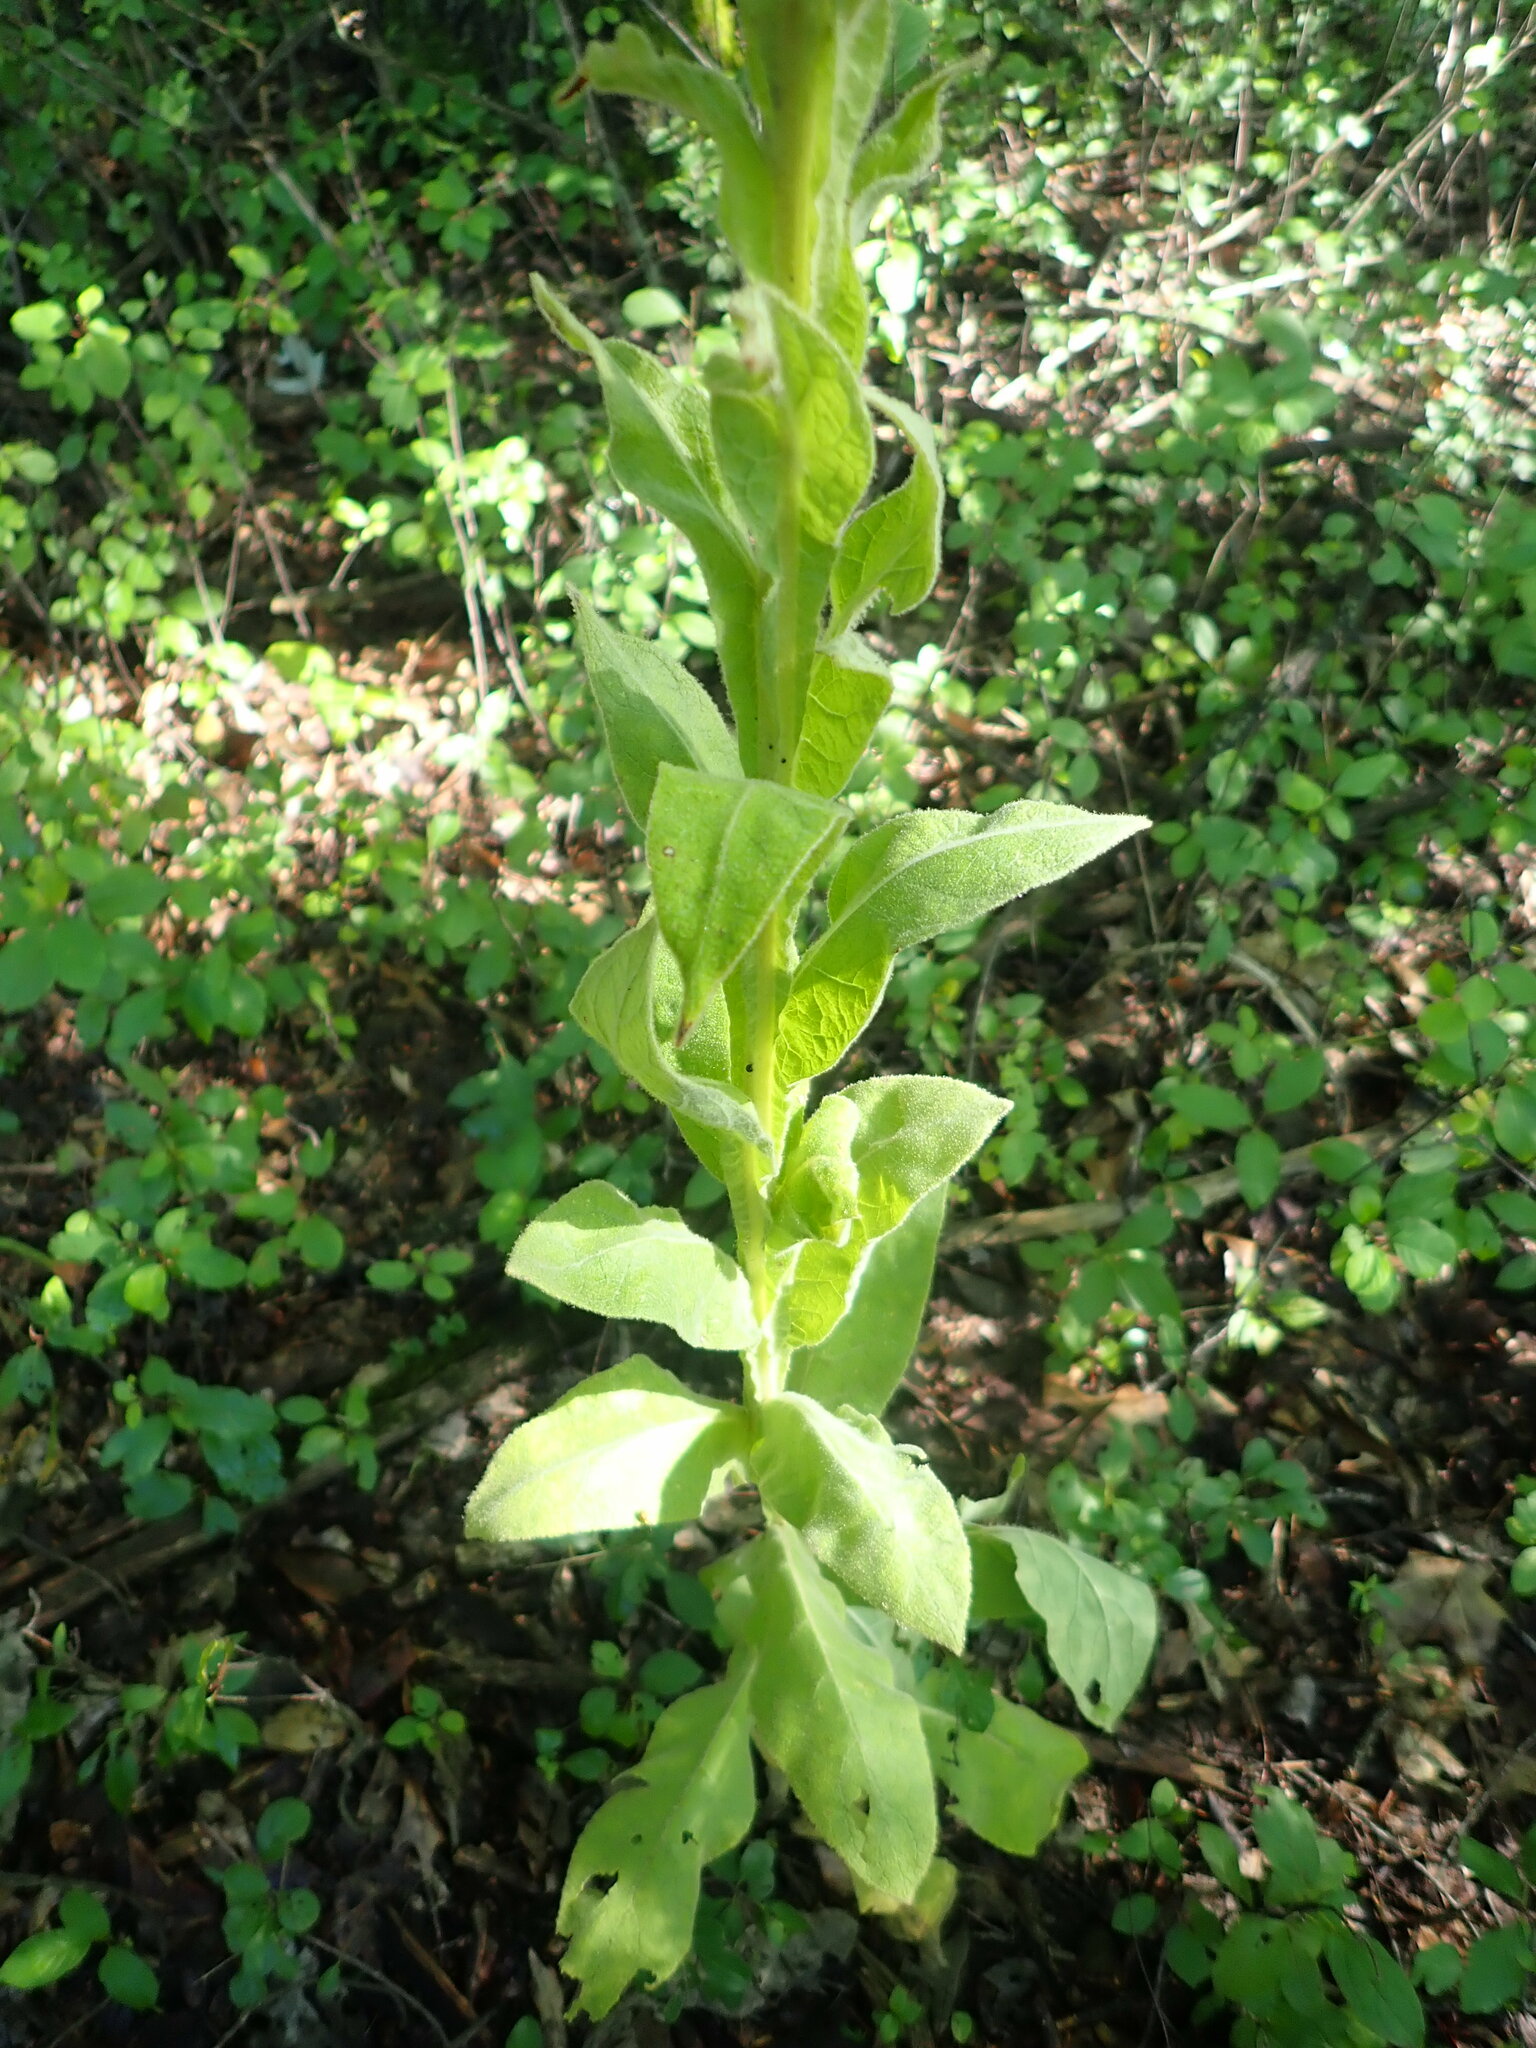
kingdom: Plantae
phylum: Tracheophyta
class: Magnoliopsida
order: Lamiales
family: Scrophulariaceae
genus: Verbascum
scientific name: Verbascum thapsus
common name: Common mullein
